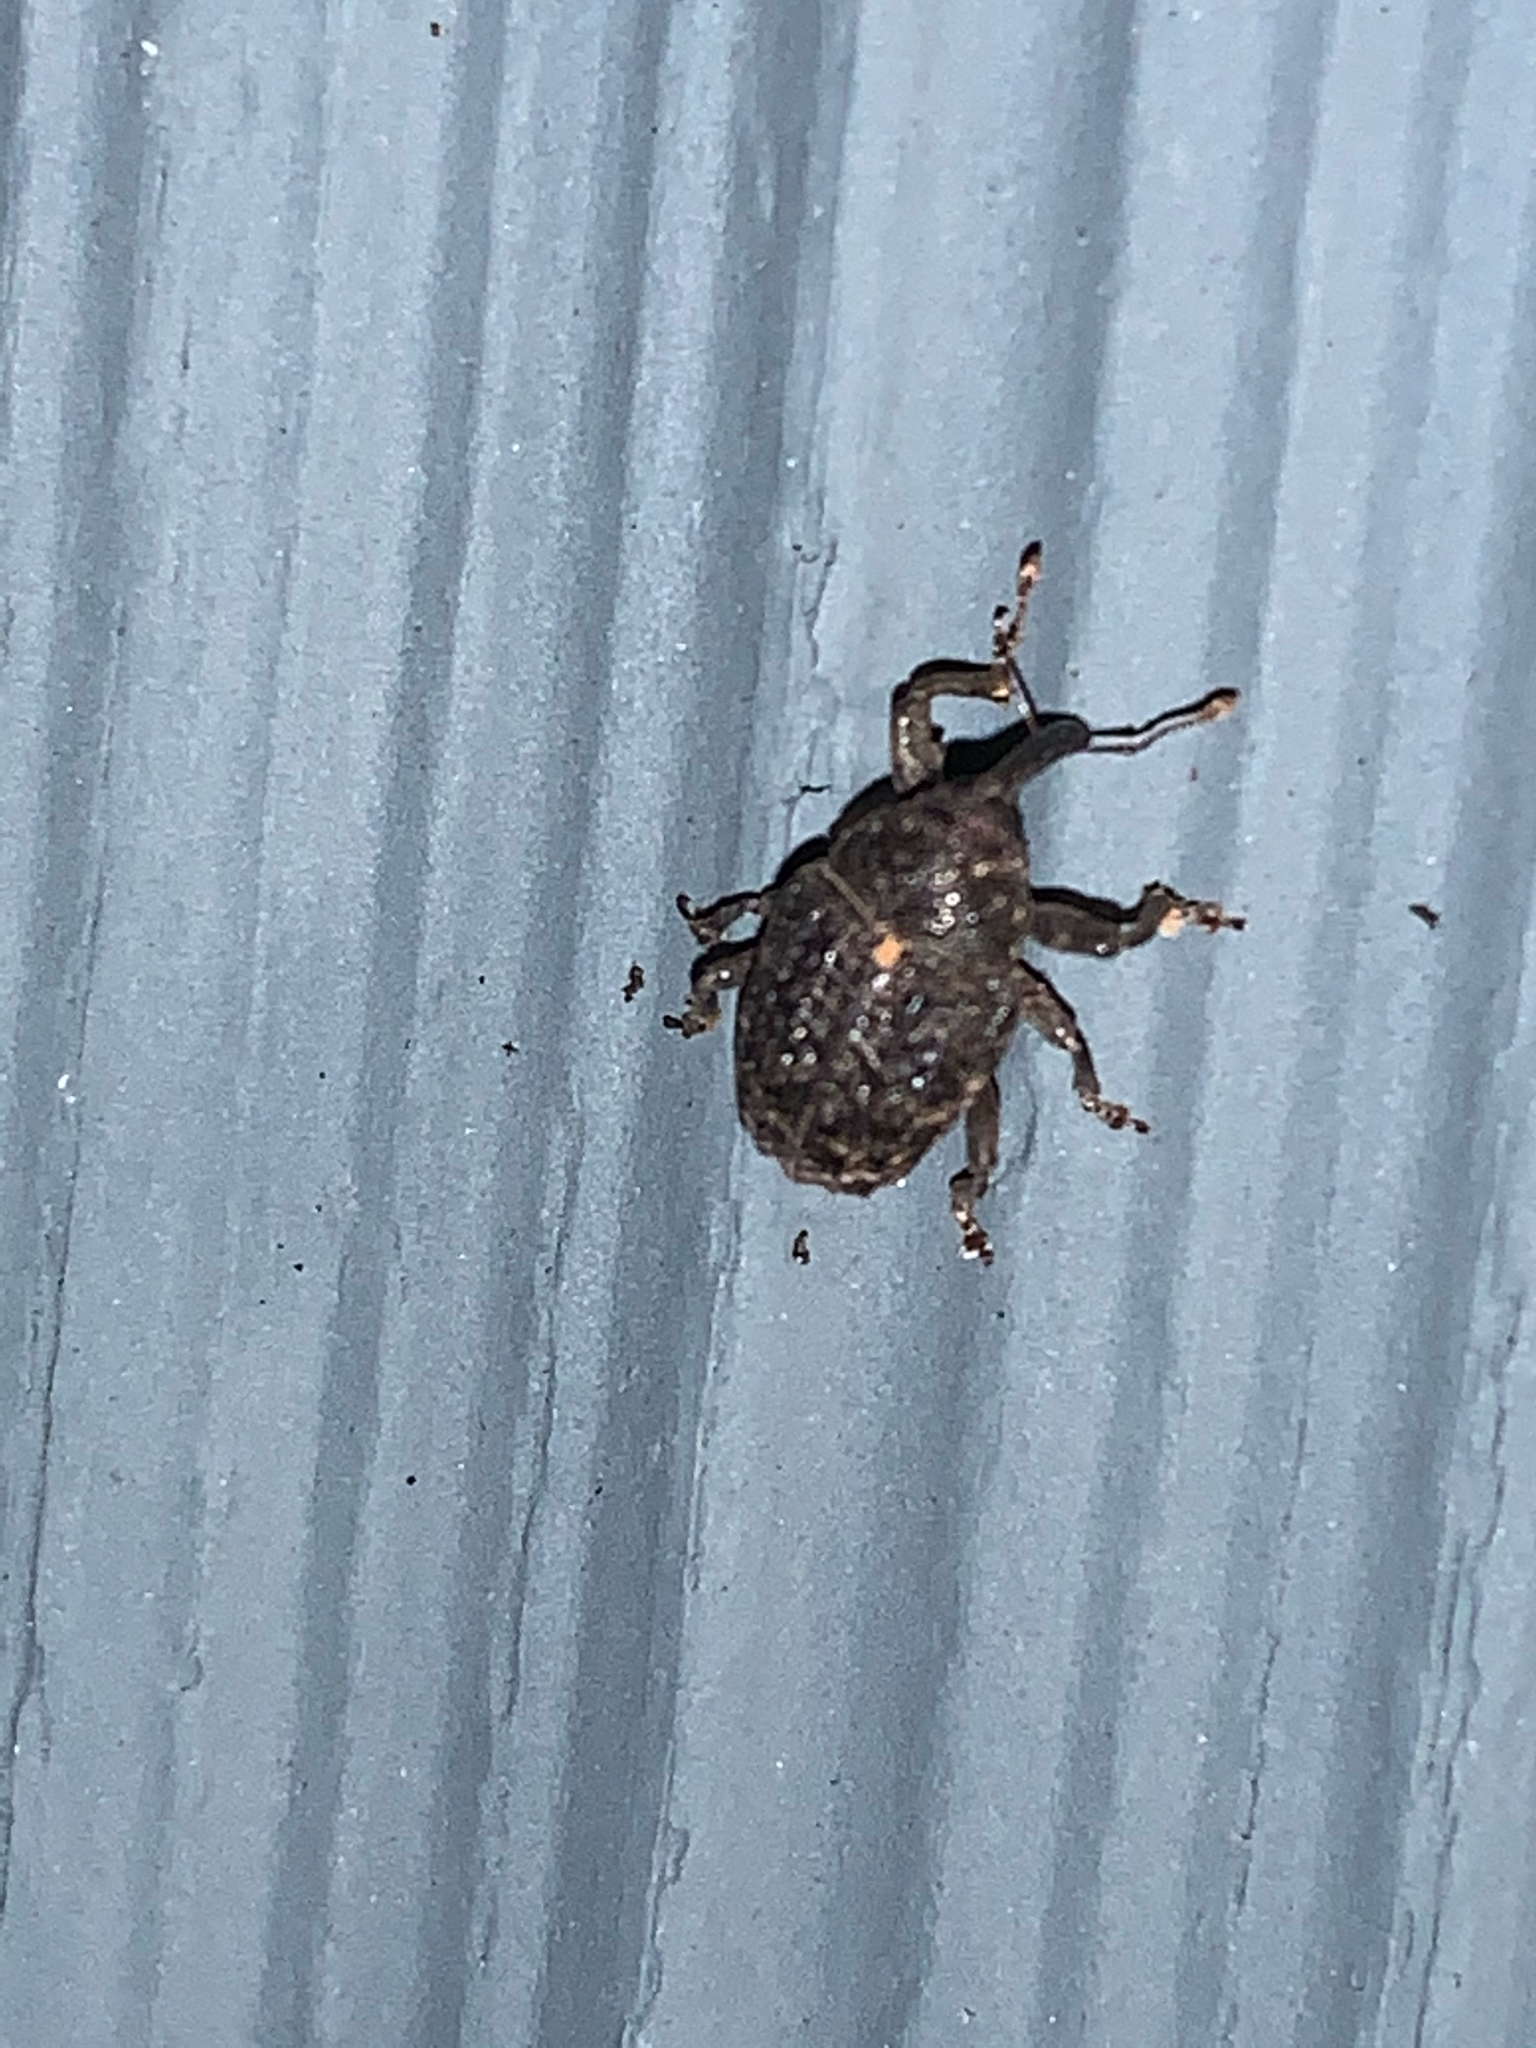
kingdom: Animalia
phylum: Arthropoda
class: Insecta
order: Coleoptera
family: Curculionidae
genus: Rhyssomatus
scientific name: Rhyssomatus palmacollis
